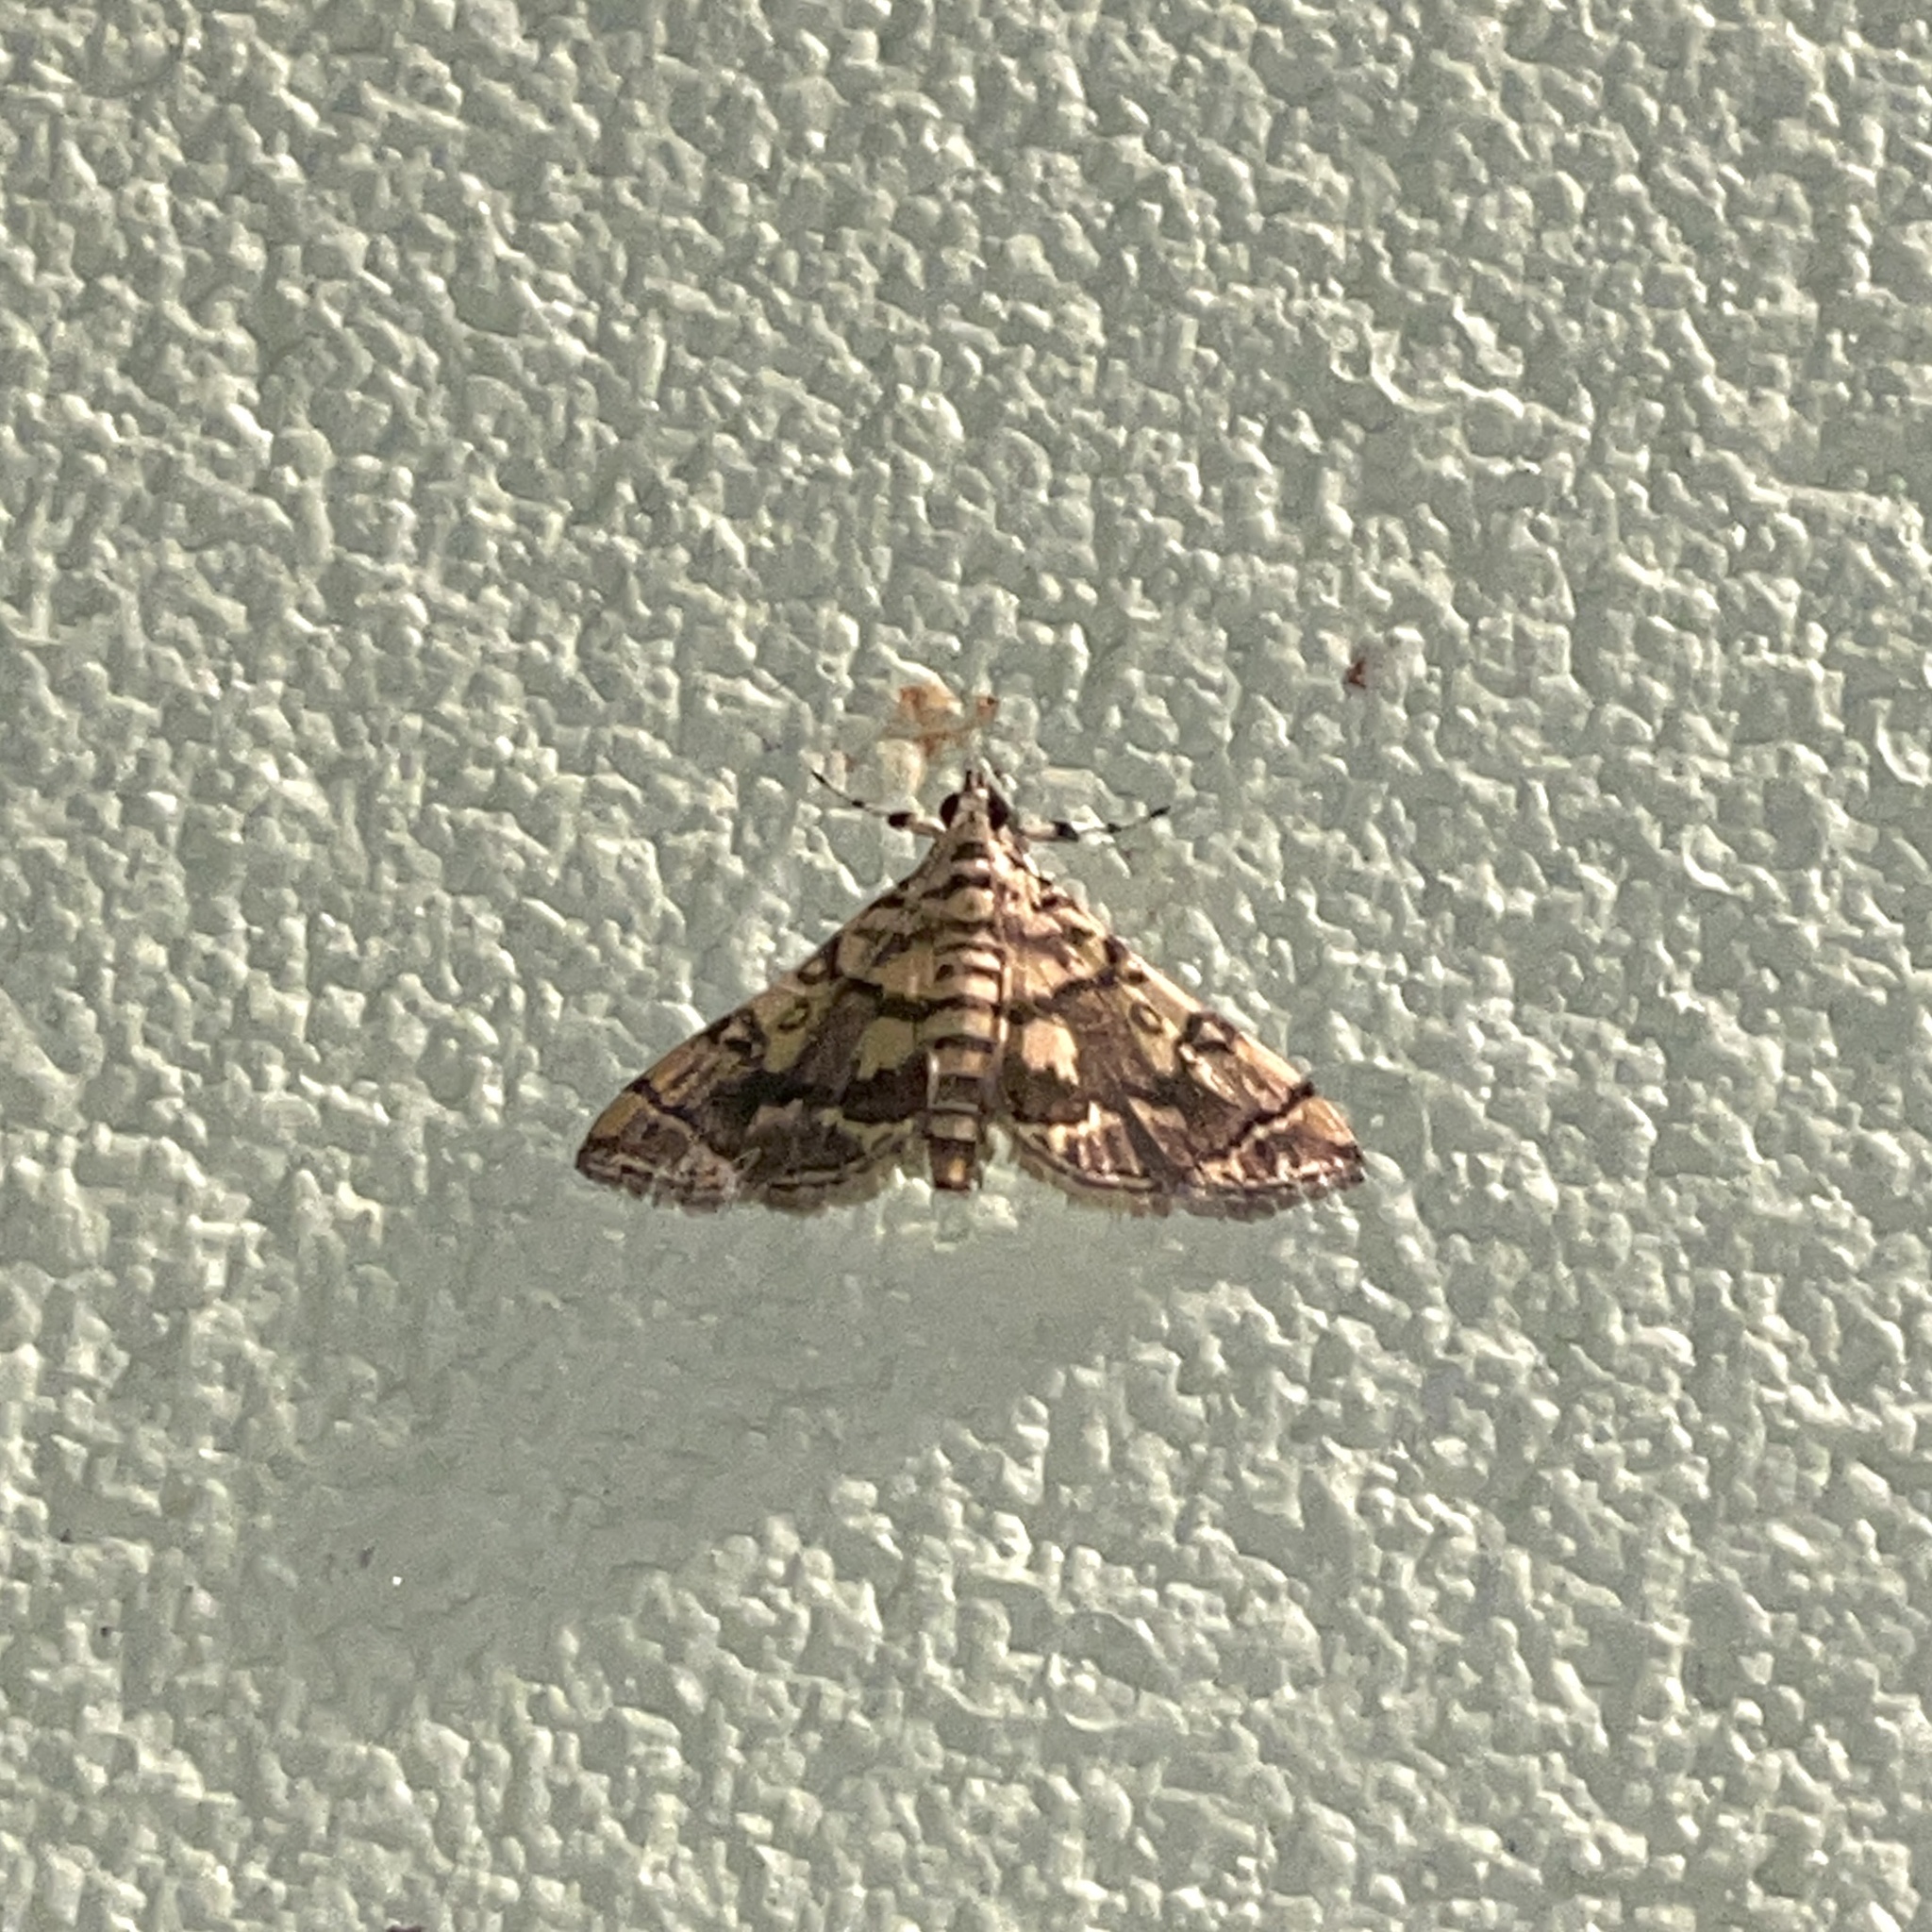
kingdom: Animalia
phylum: Arthropoda
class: Insecta
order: Lepidoptera
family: Crambidae
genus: Apogeshna
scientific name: Apogeshna stenialis
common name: Checkered apogeshna moth
